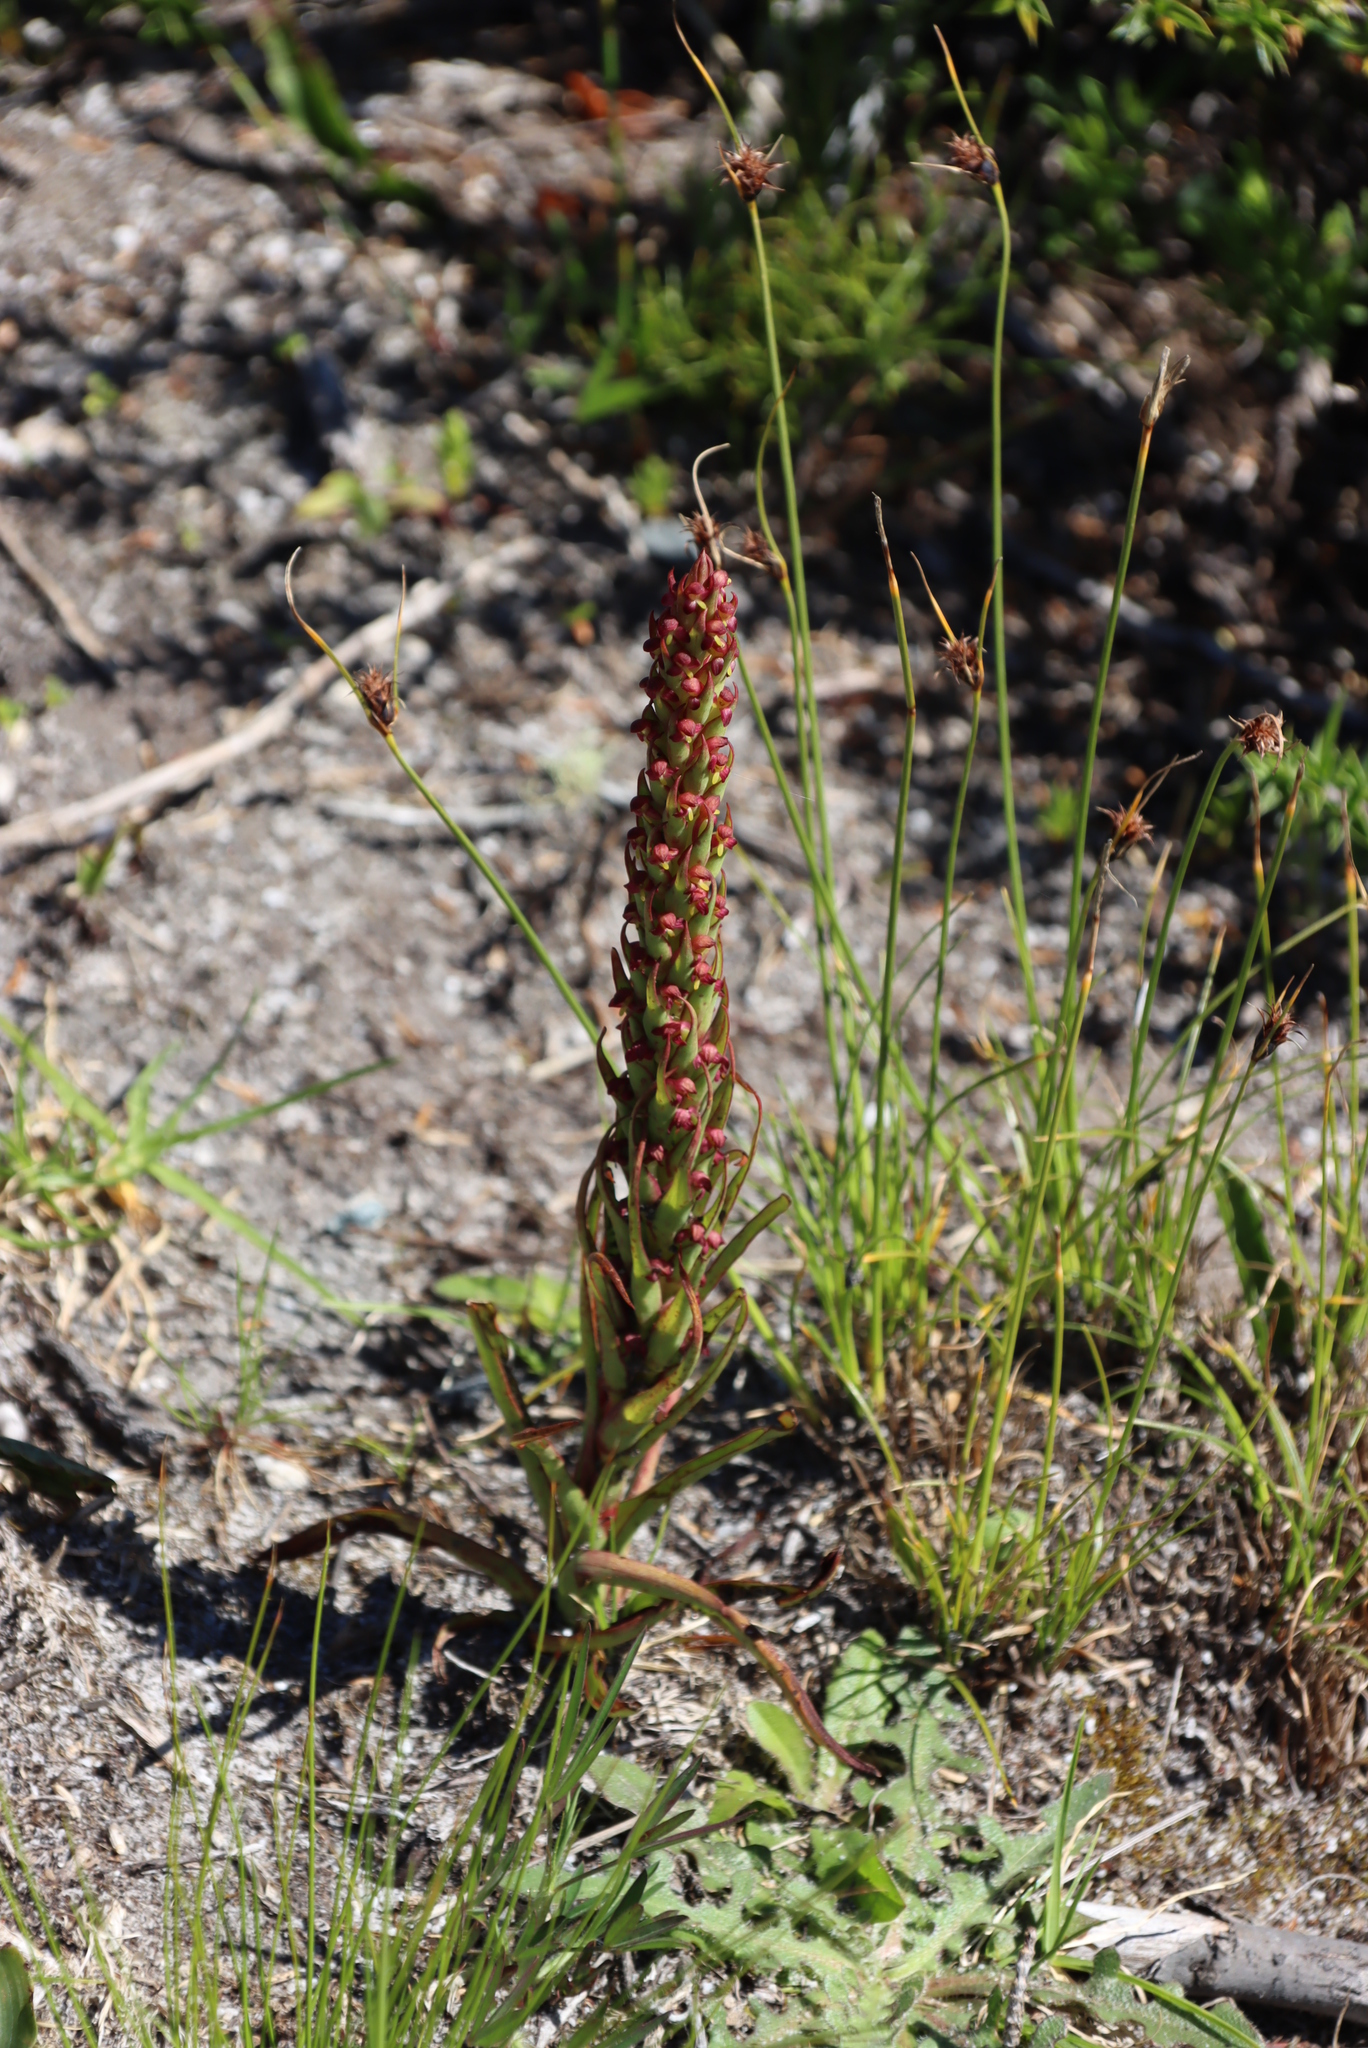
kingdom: Plantae
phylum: Tracheophyta
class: Liliopsida
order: Asparagales
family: Orchidaceae
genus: Disa
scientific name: Disa bracteata
